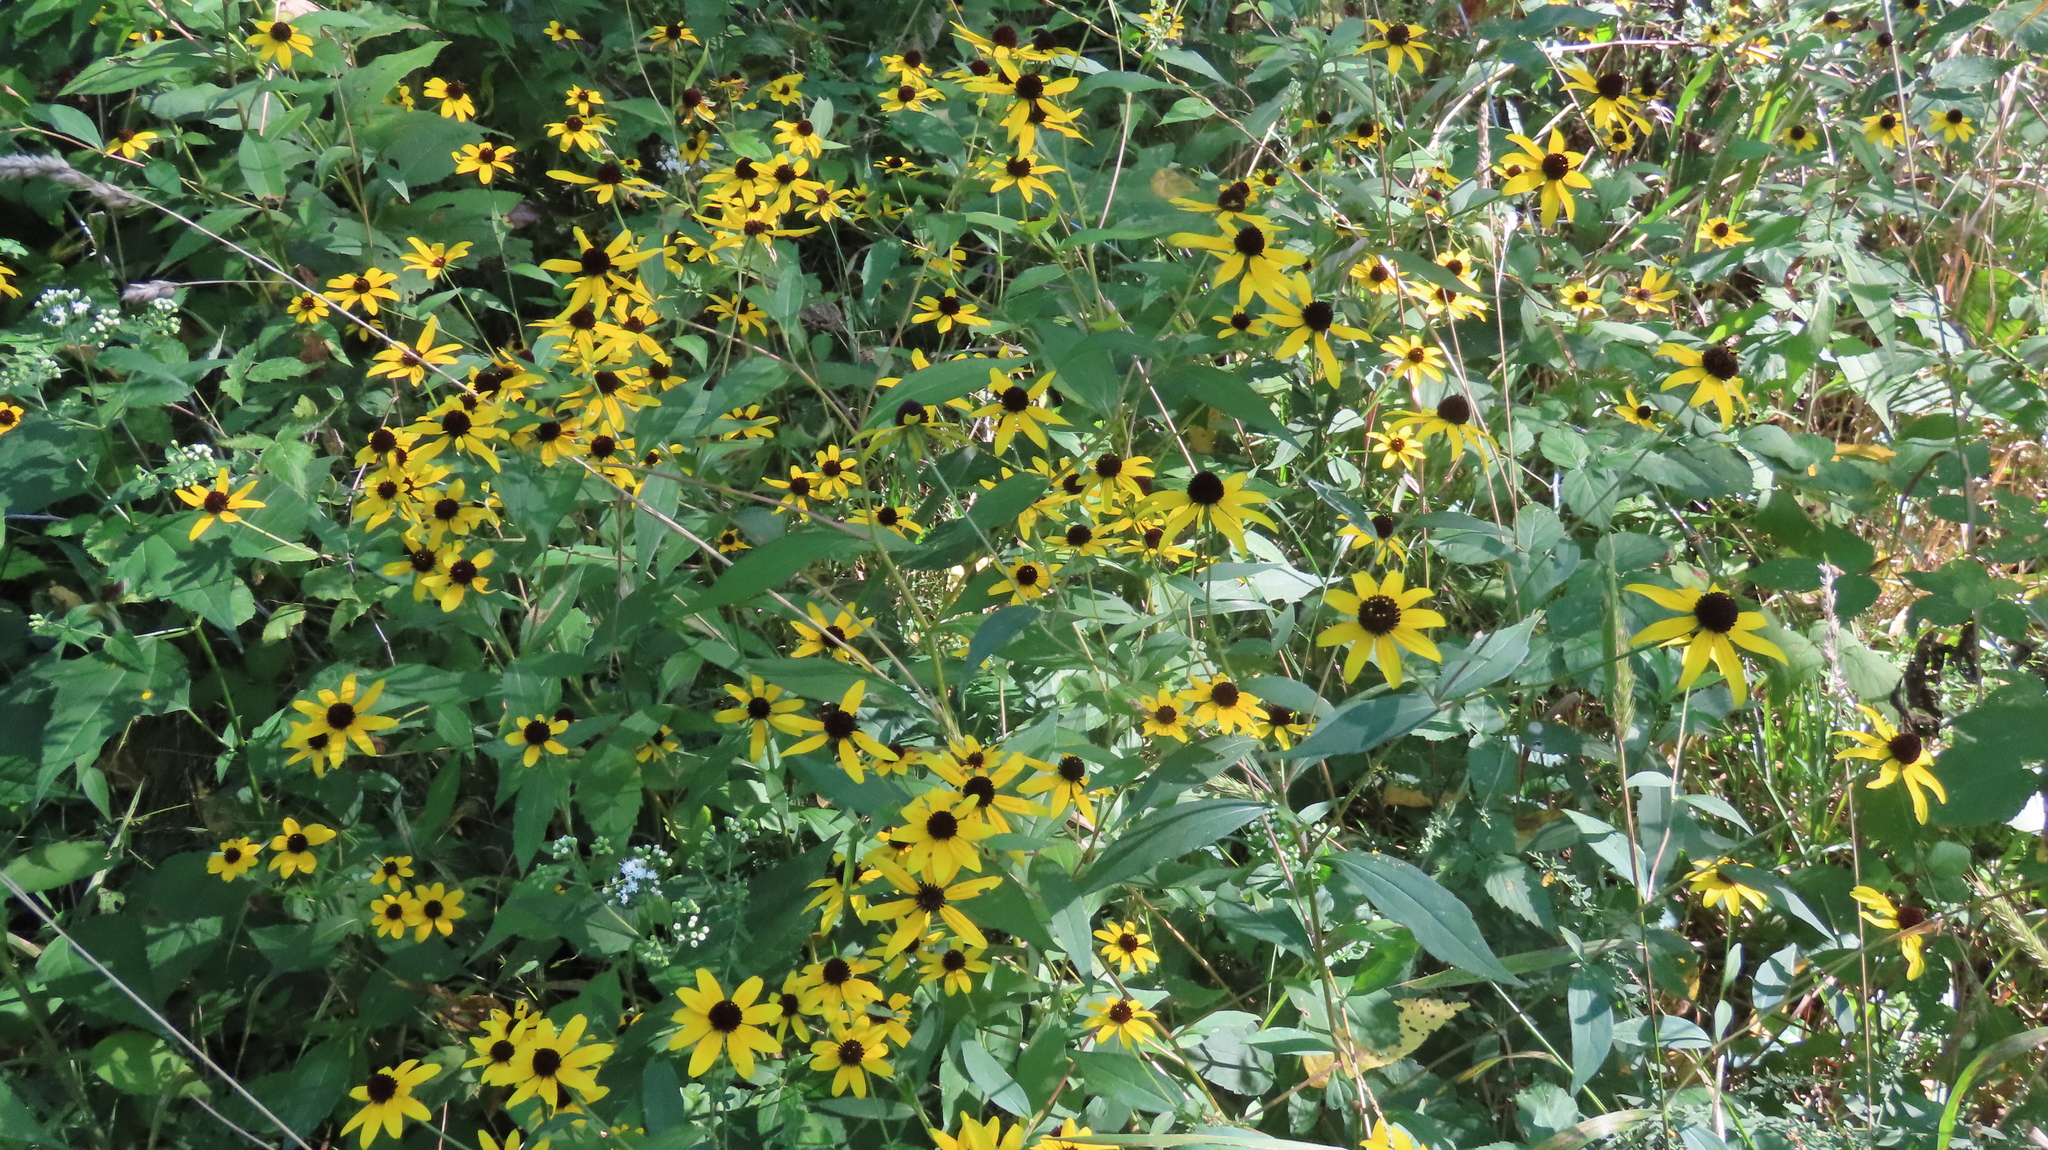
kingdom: Plantae
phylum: Tracheophyta
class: Magnoliopsida
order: Asterales
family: Asteraceae
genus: Rudbeckia
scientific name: Rudbeckia triloba
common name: Thin-leaved coneflower
